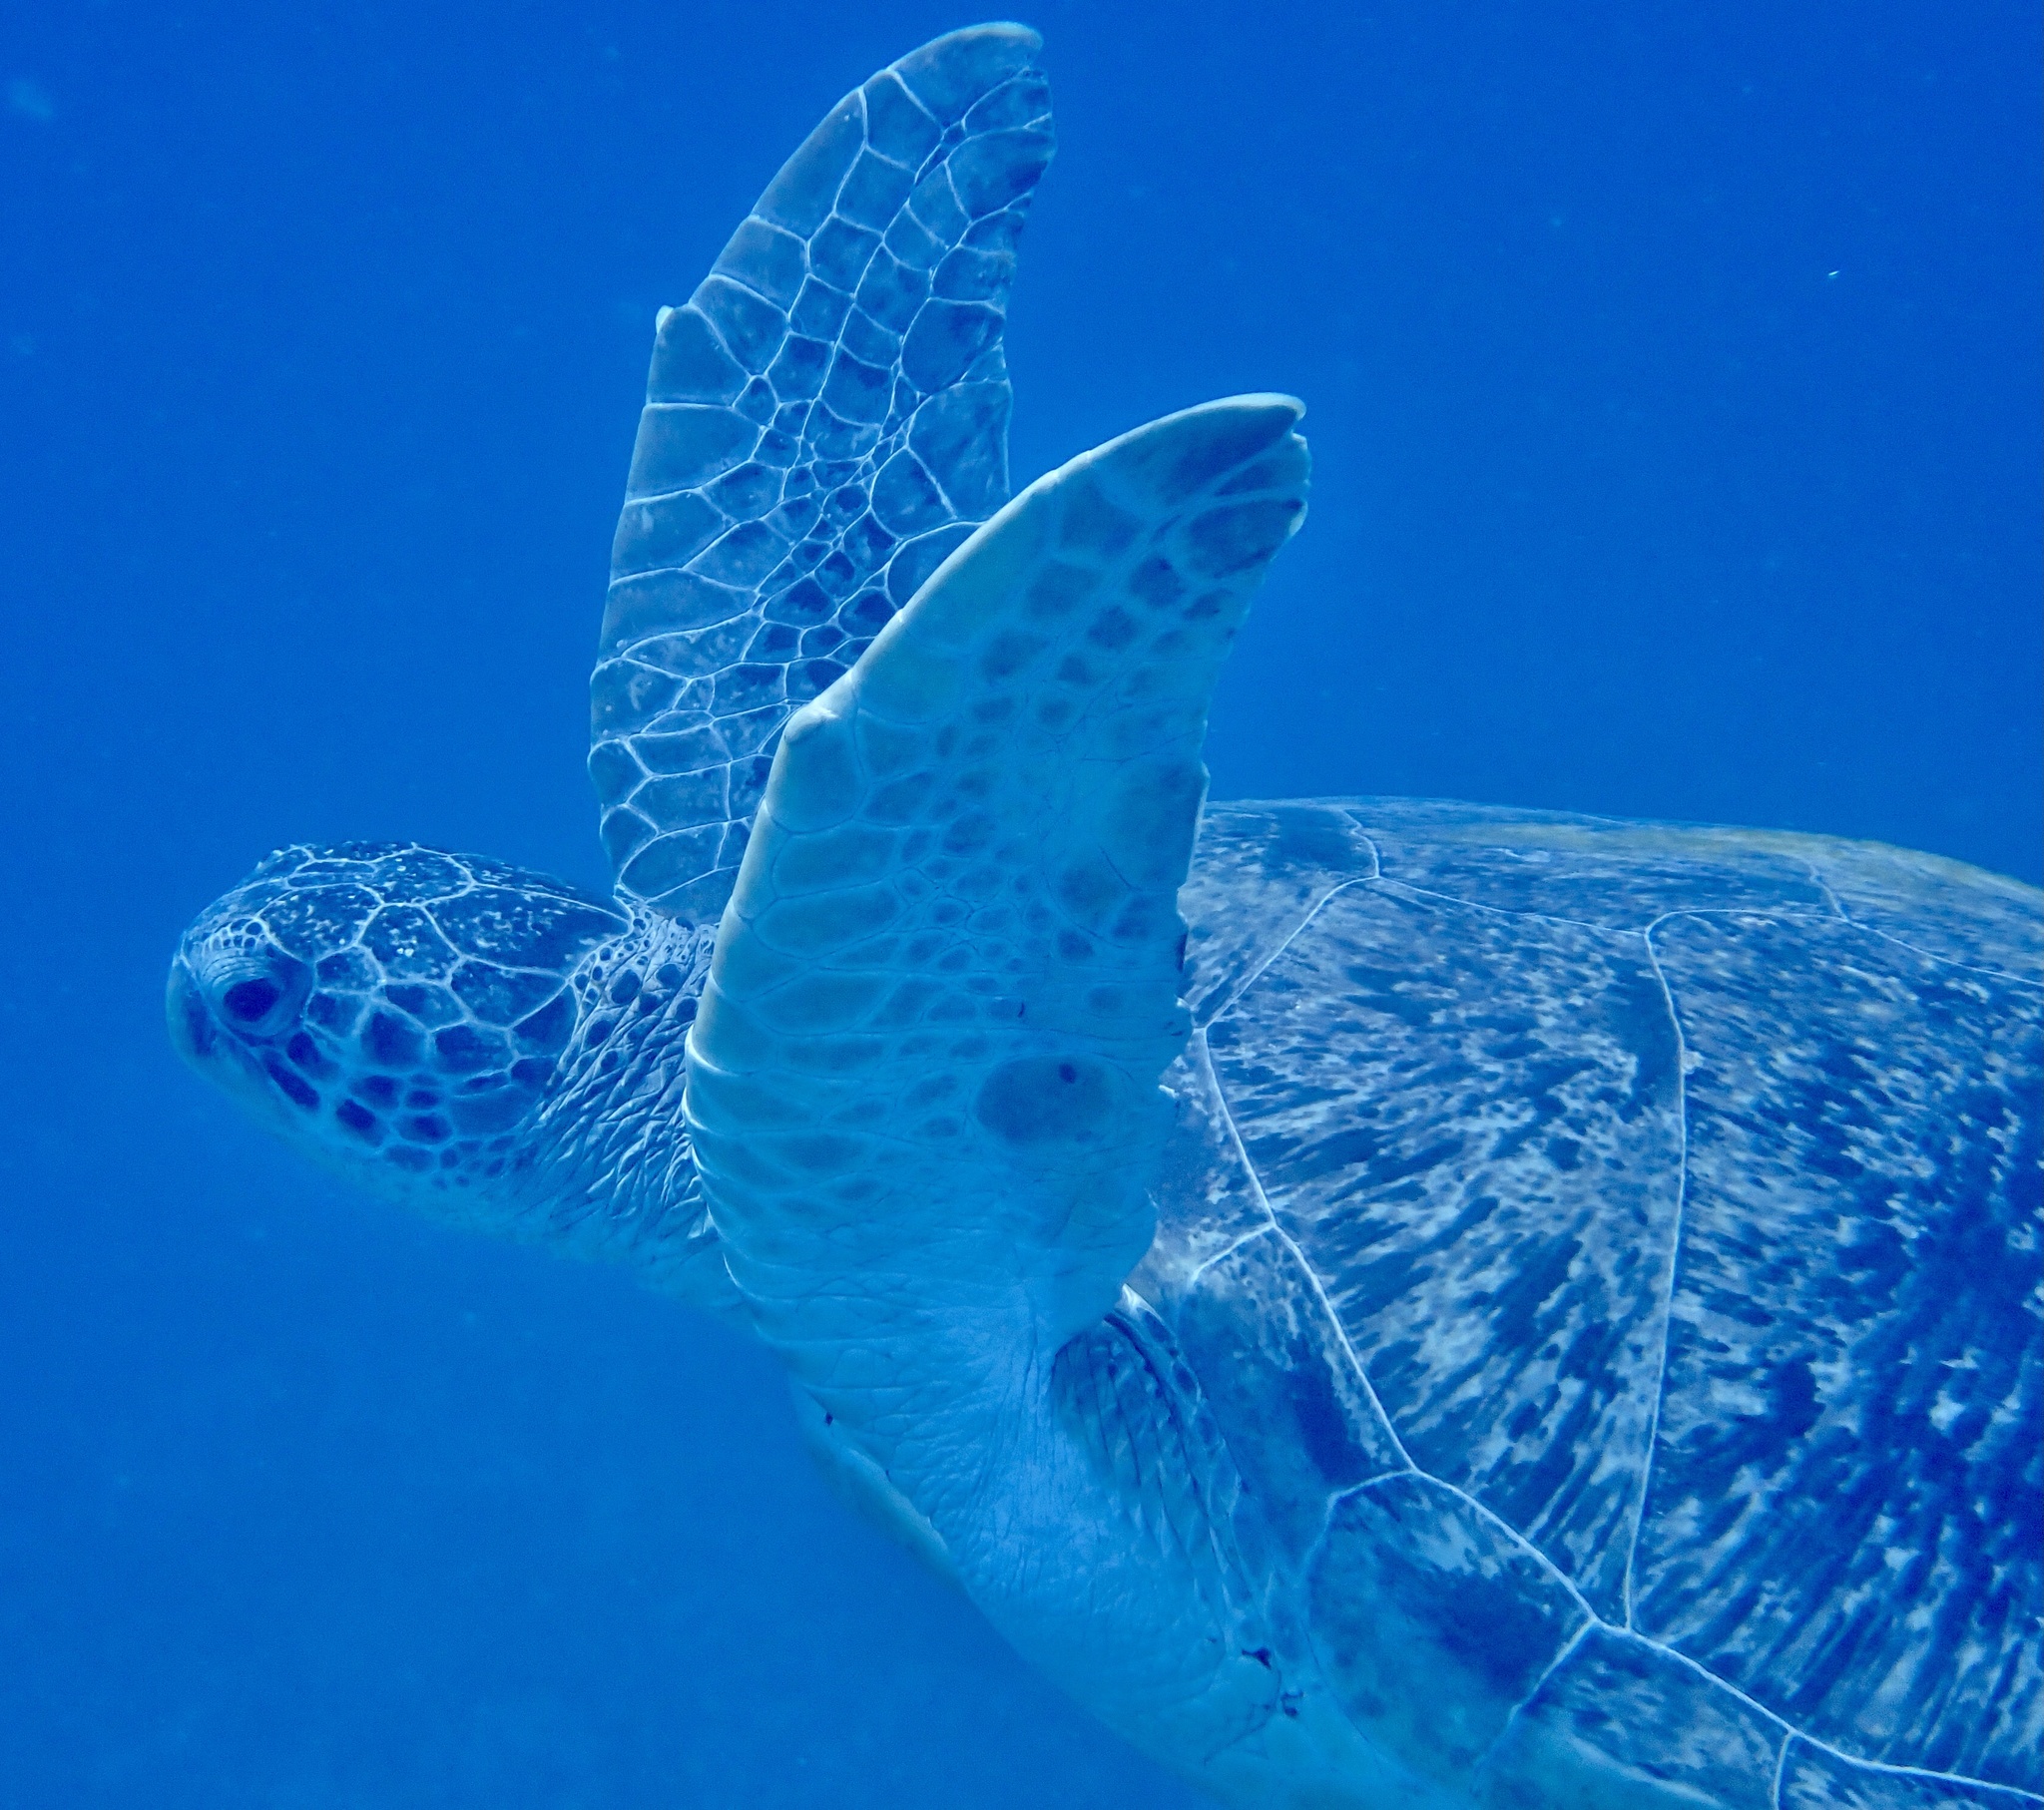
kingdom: Animalia
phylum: Chordata
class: Testudines
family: Cheloniidae
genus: Chelonia
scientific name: Chelonia mydas
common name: Green turtle
